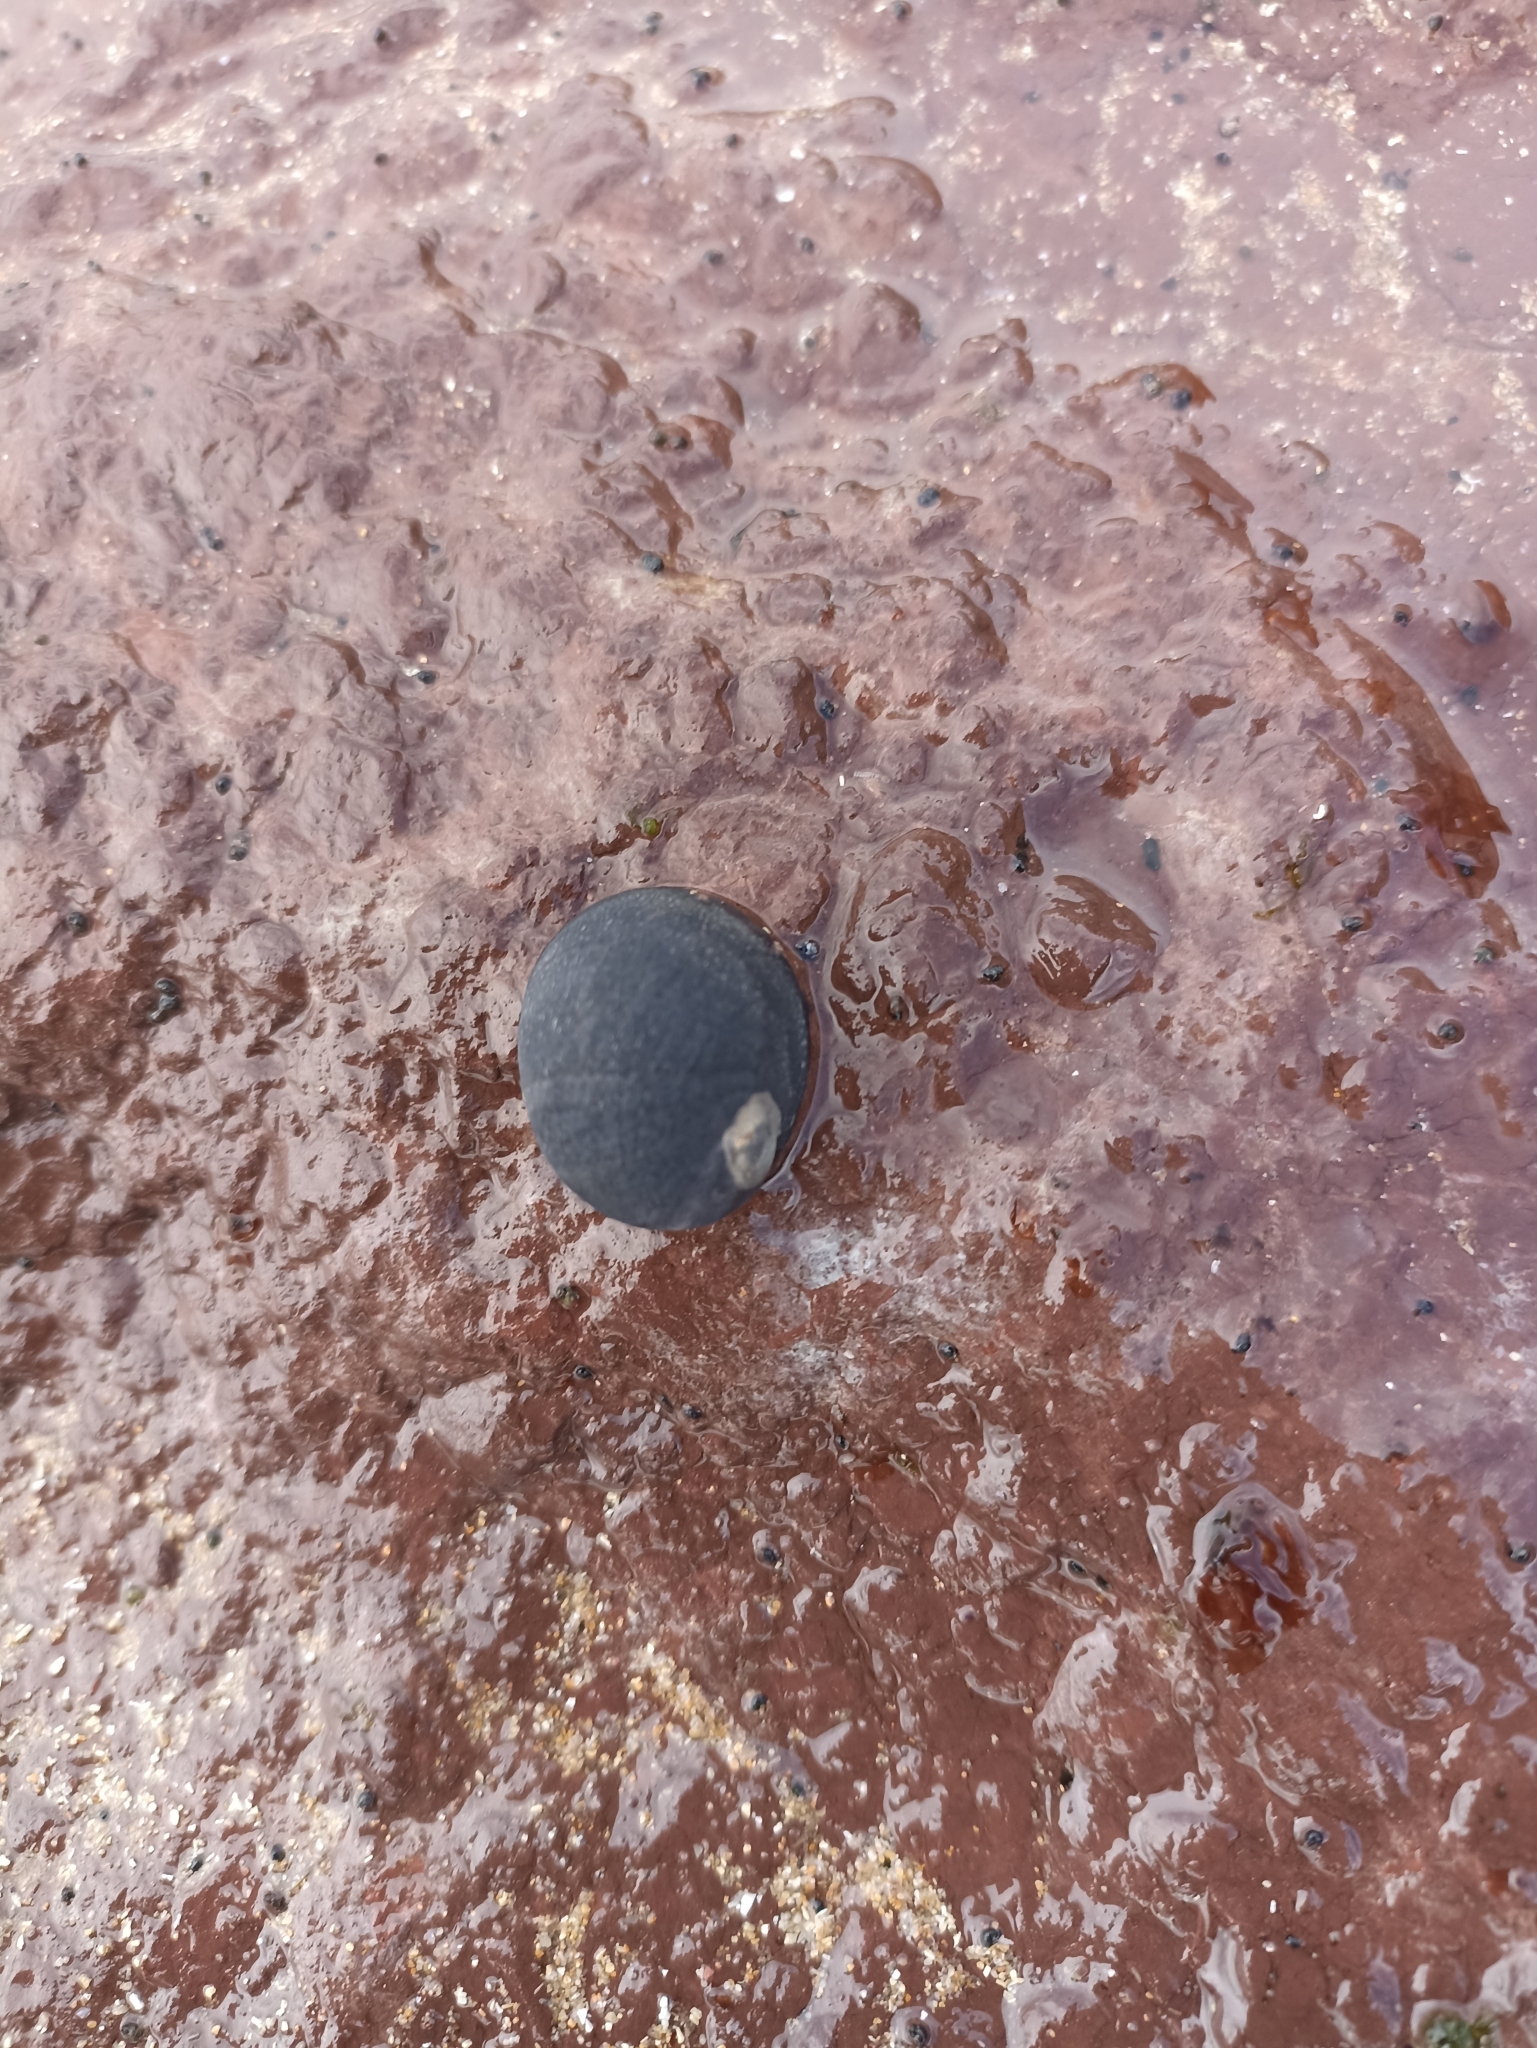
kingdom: Animalia
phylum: Mollusca
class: Gastropoda
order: Cycloneritida
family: Neritidae
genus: Nerita
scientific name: Nerita melanotragus
